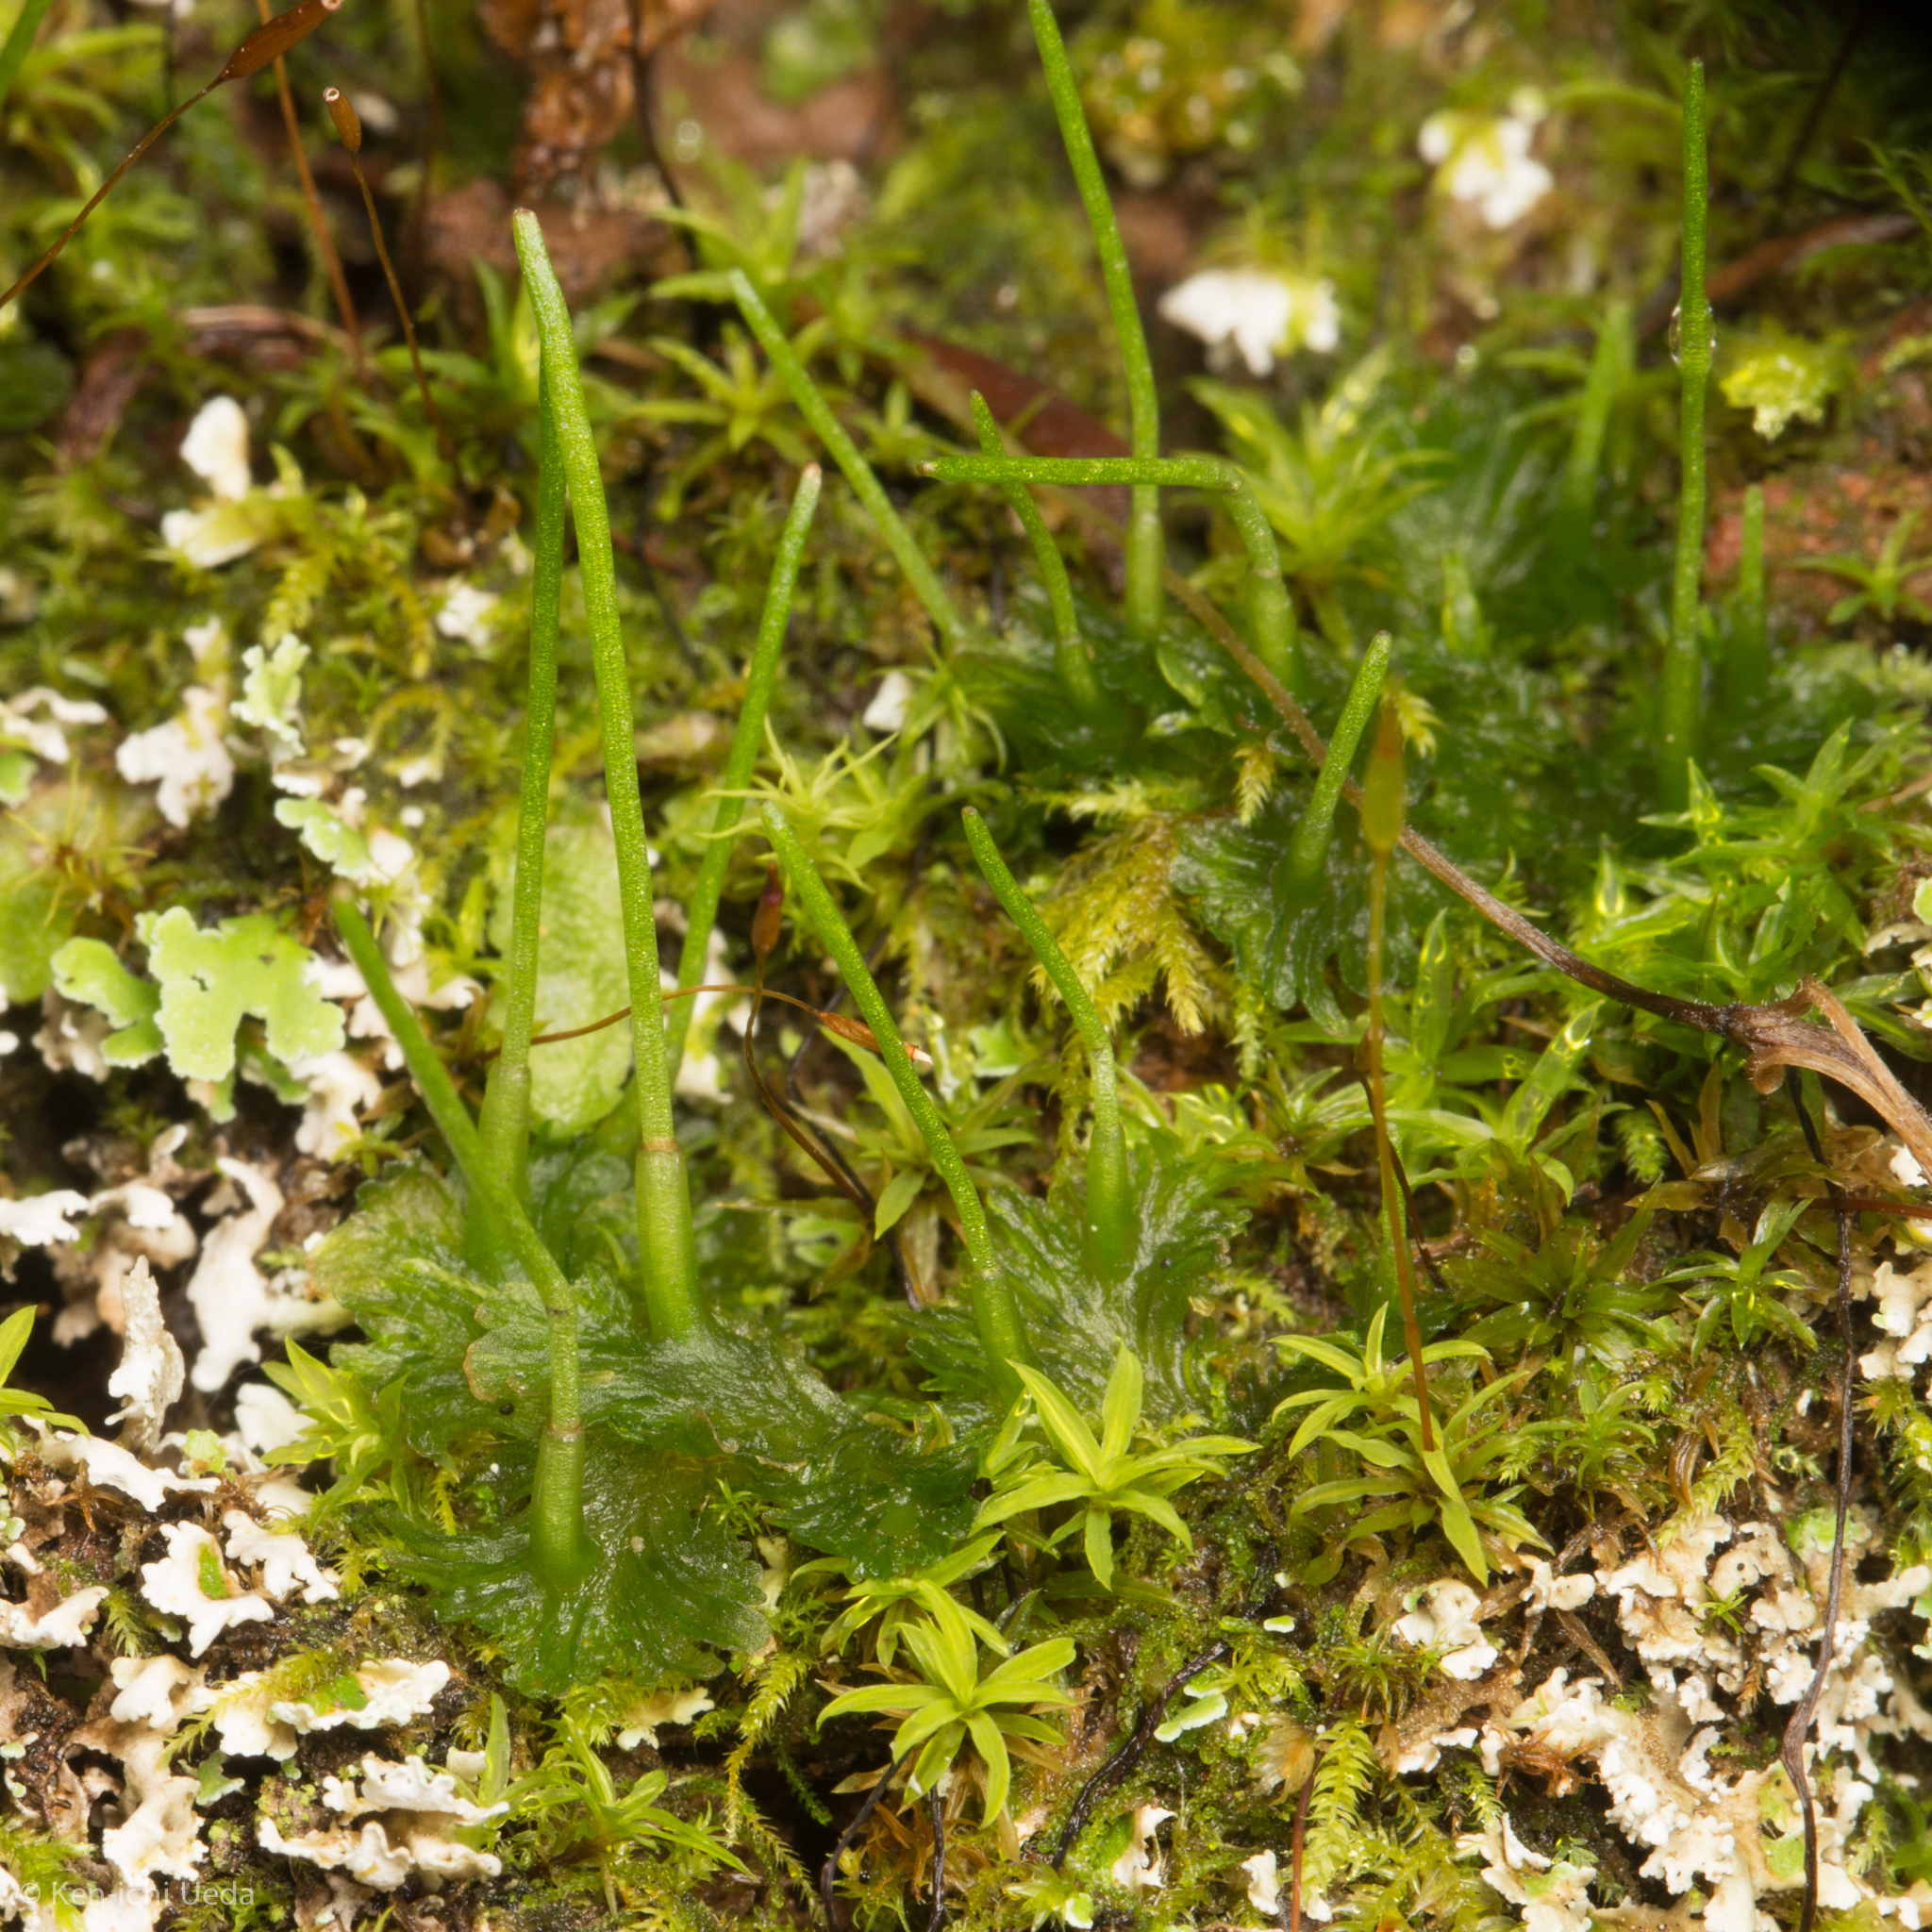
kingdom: Plantae
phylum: Anthocerotophyta
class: Anthocerotopsida
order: Anthocerotales
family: Anthocerotaceae
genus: Anthoceros
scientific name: Anthoceros fusiformis
